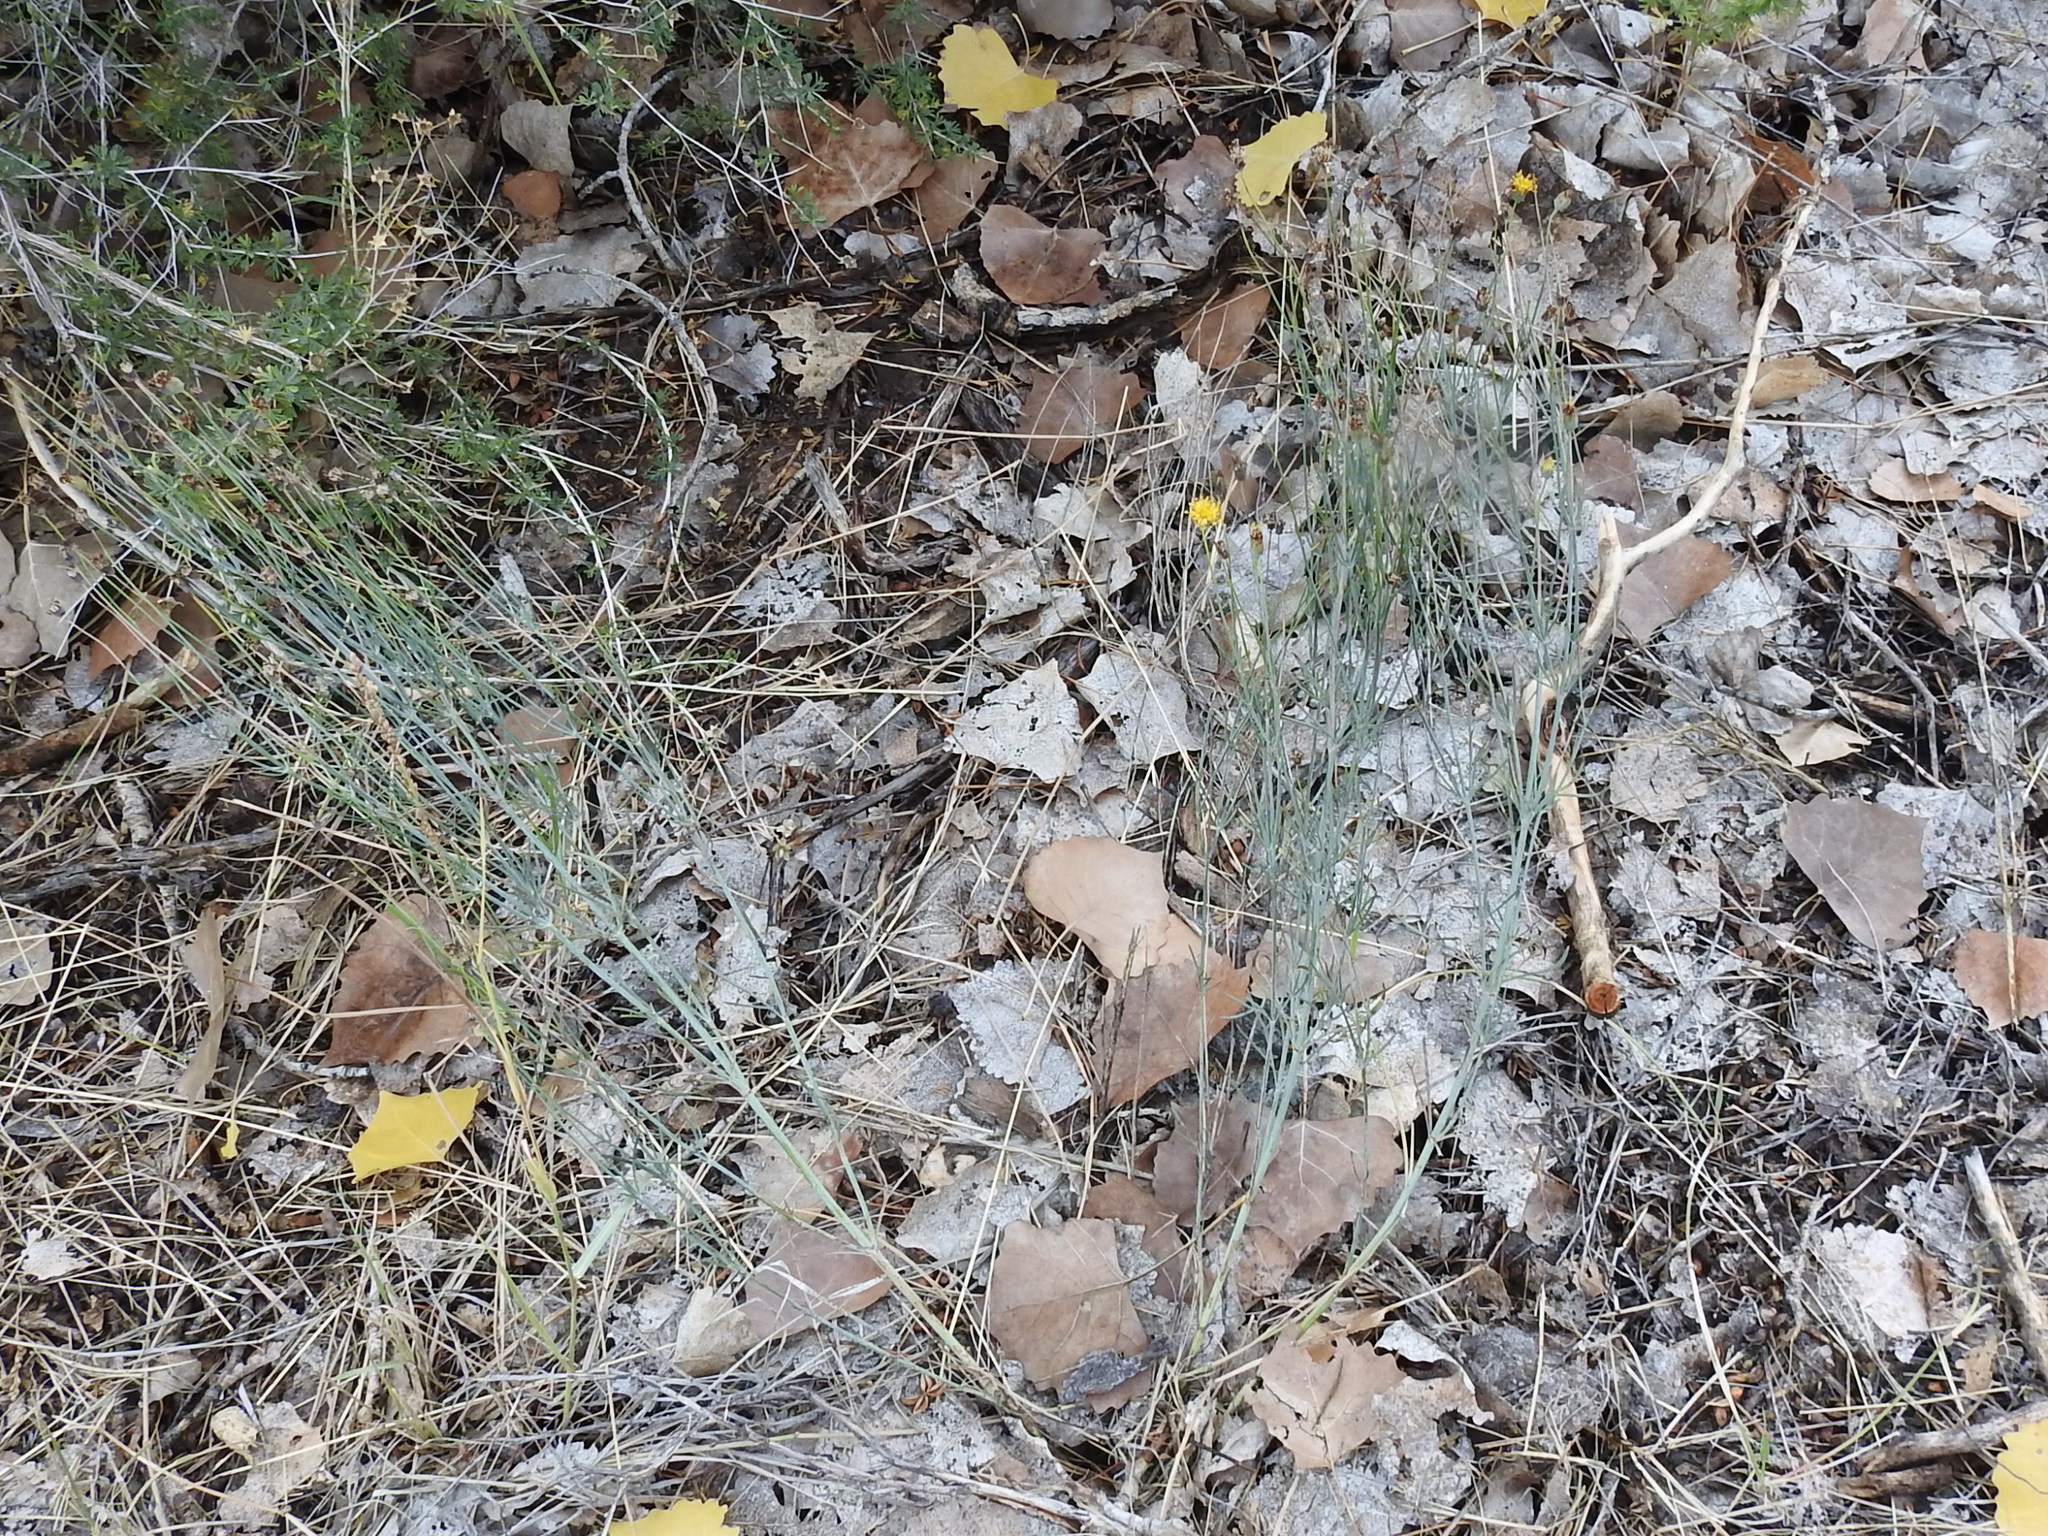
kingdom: Plantae
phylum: Tracheophyta
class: Magnoliopsida
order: Asterales
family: Asteraceae
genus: Thelesperma
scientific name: Thelesperma megapotamicum
